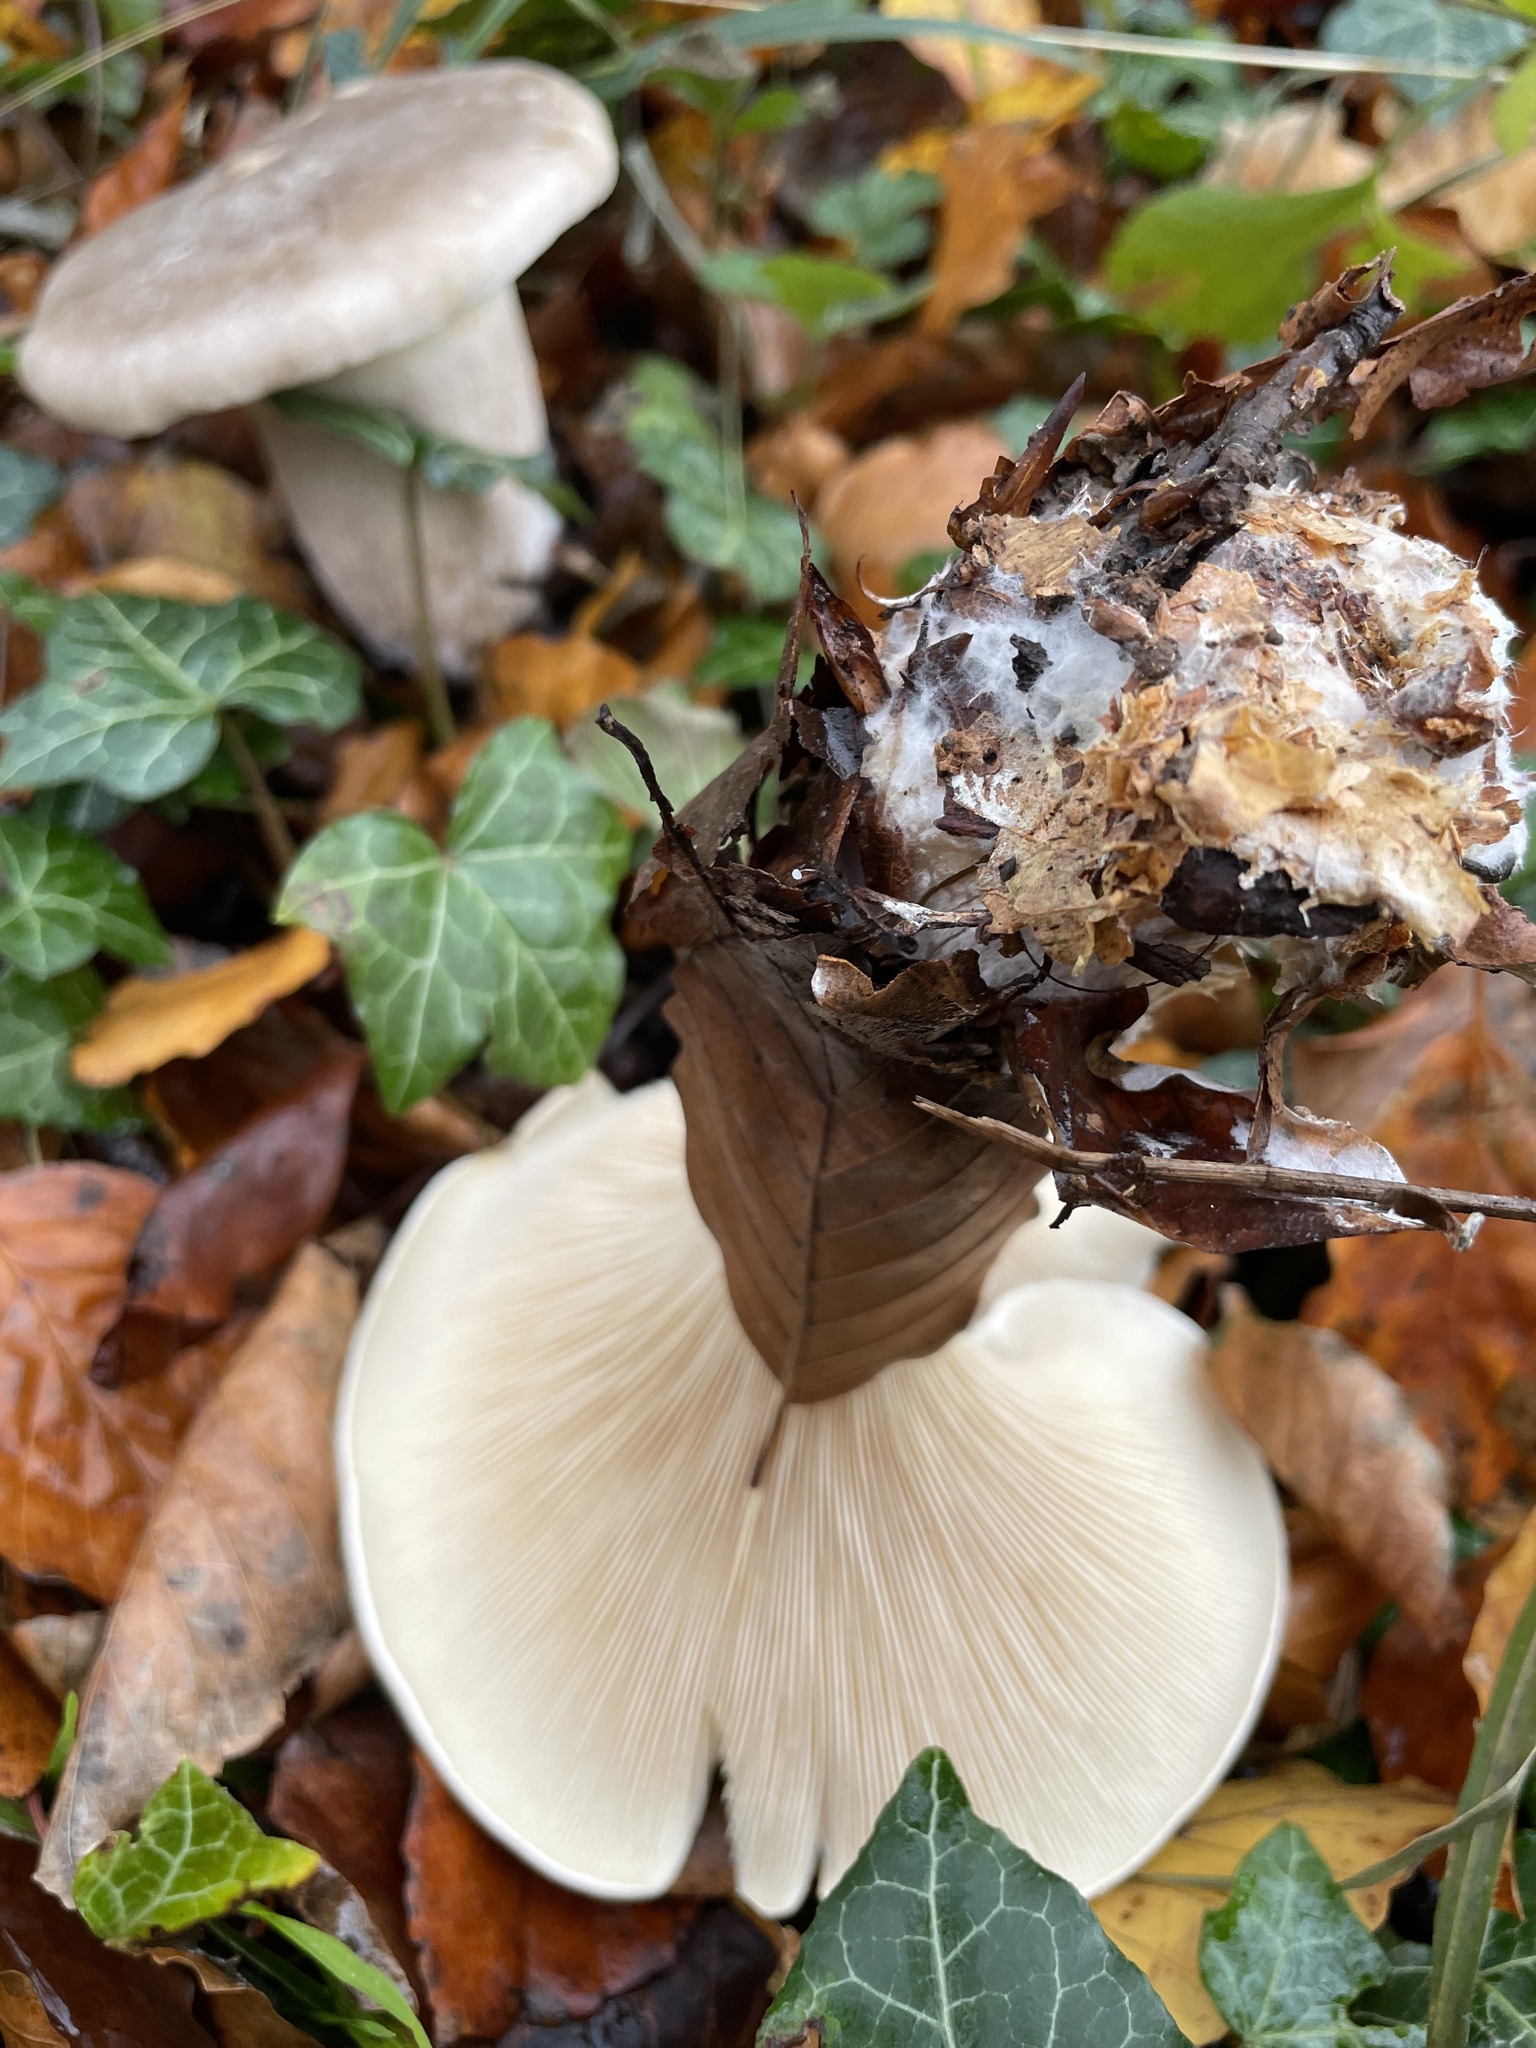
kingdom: Fungi
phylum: Basidiomycota
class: Agaricomycetes
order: Agaricales
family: Tricholomataceae
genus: Clitocybe
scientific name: Clitocybe nebularis
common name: Clouded agaric
